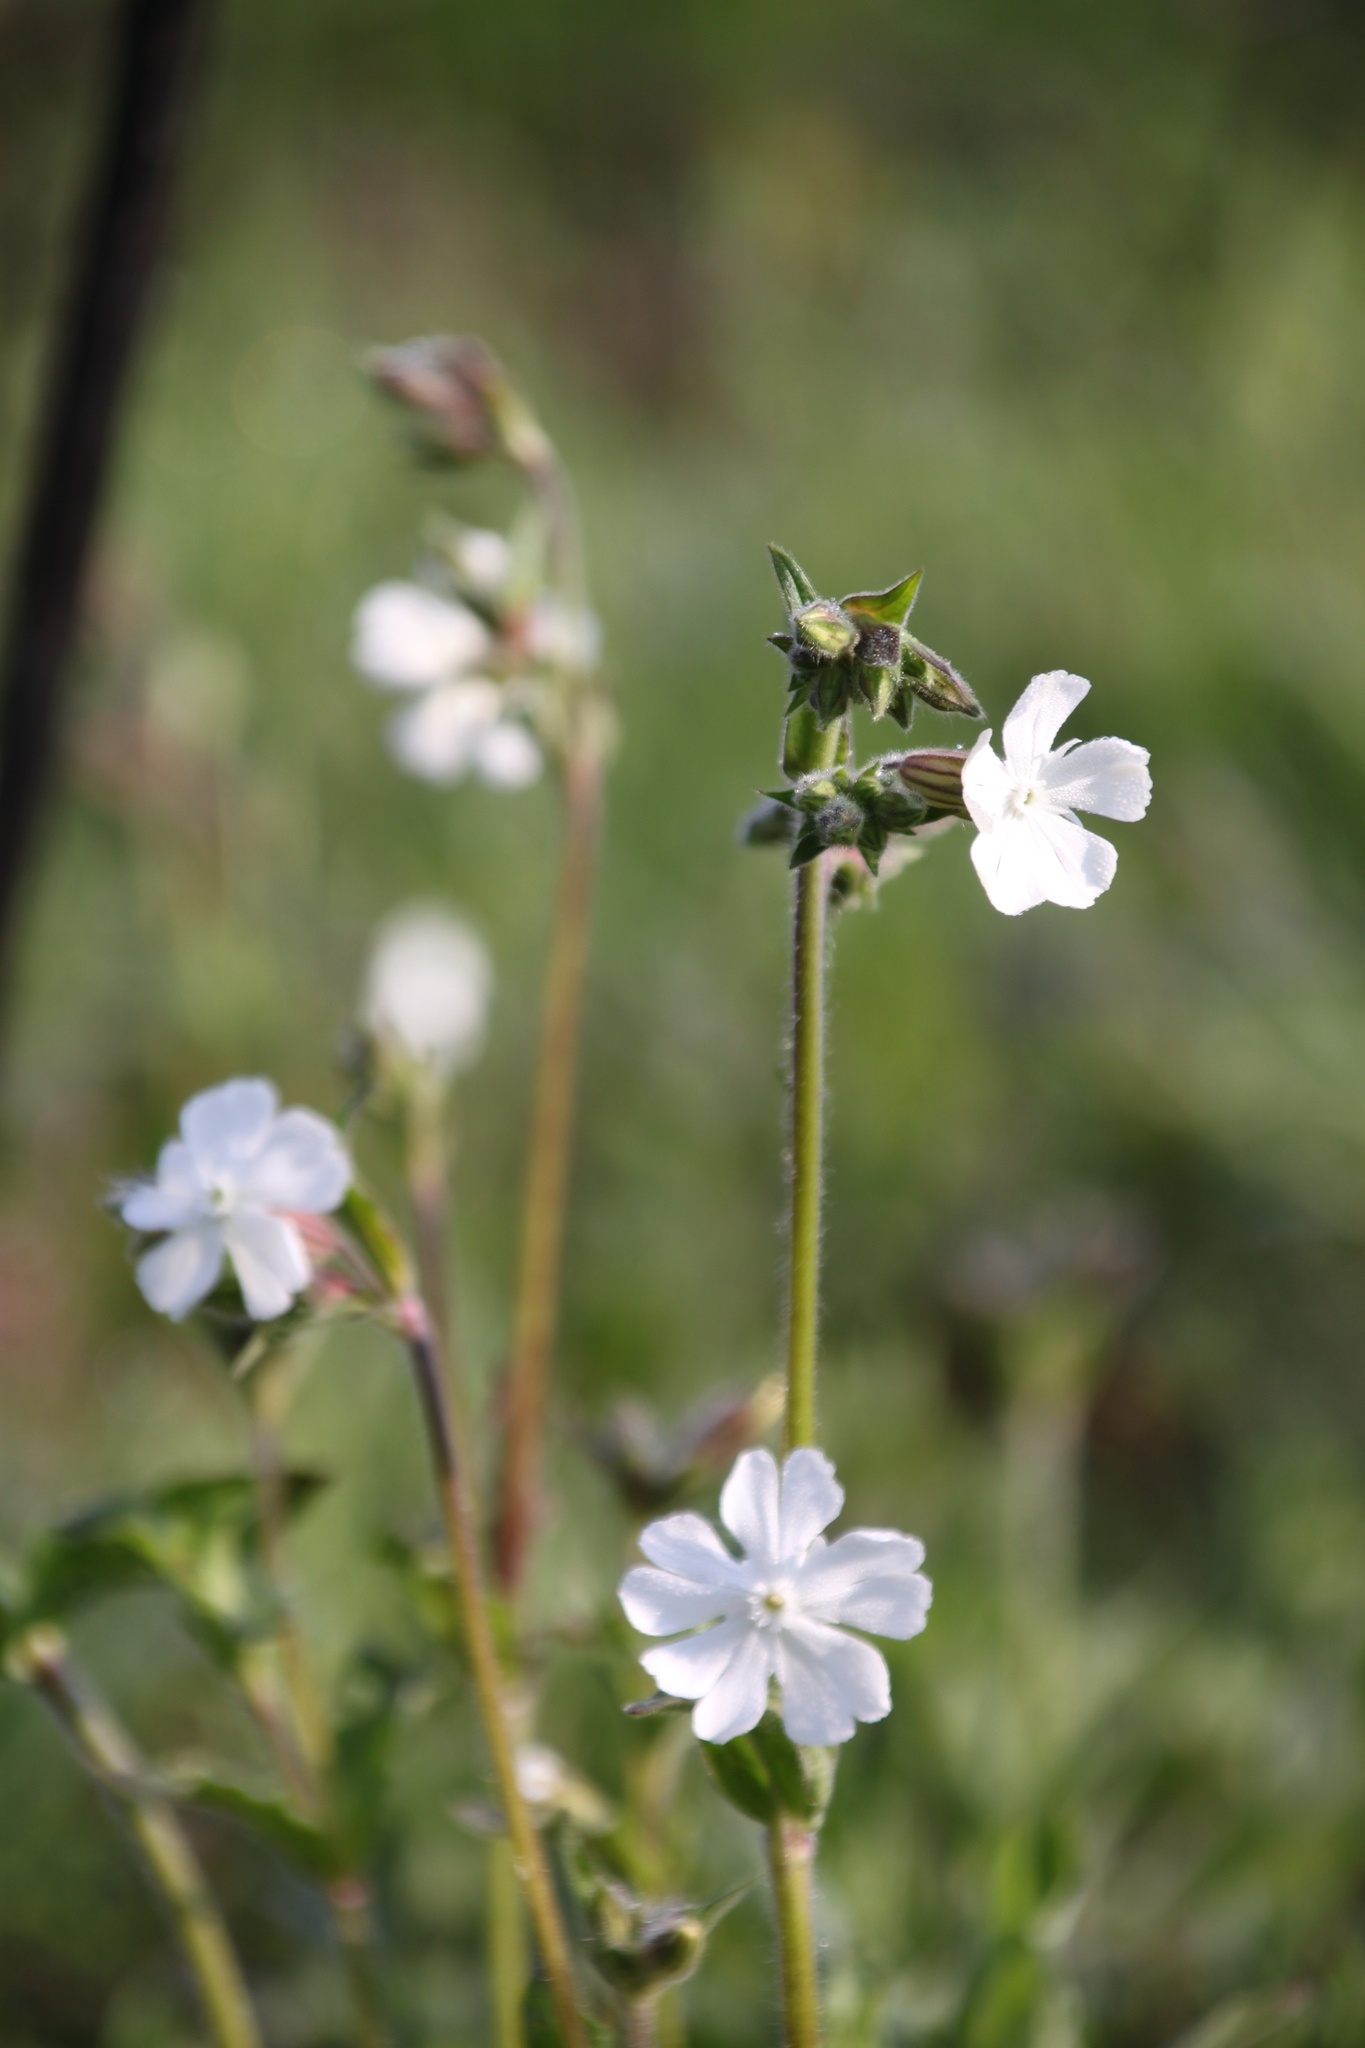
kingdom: Plantae
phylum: Tracheophyta
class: Magnoliopsida
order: Caryophyllales
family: Caryophyllaceae
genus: Silene
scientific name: Silene latifolia
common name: White campion
